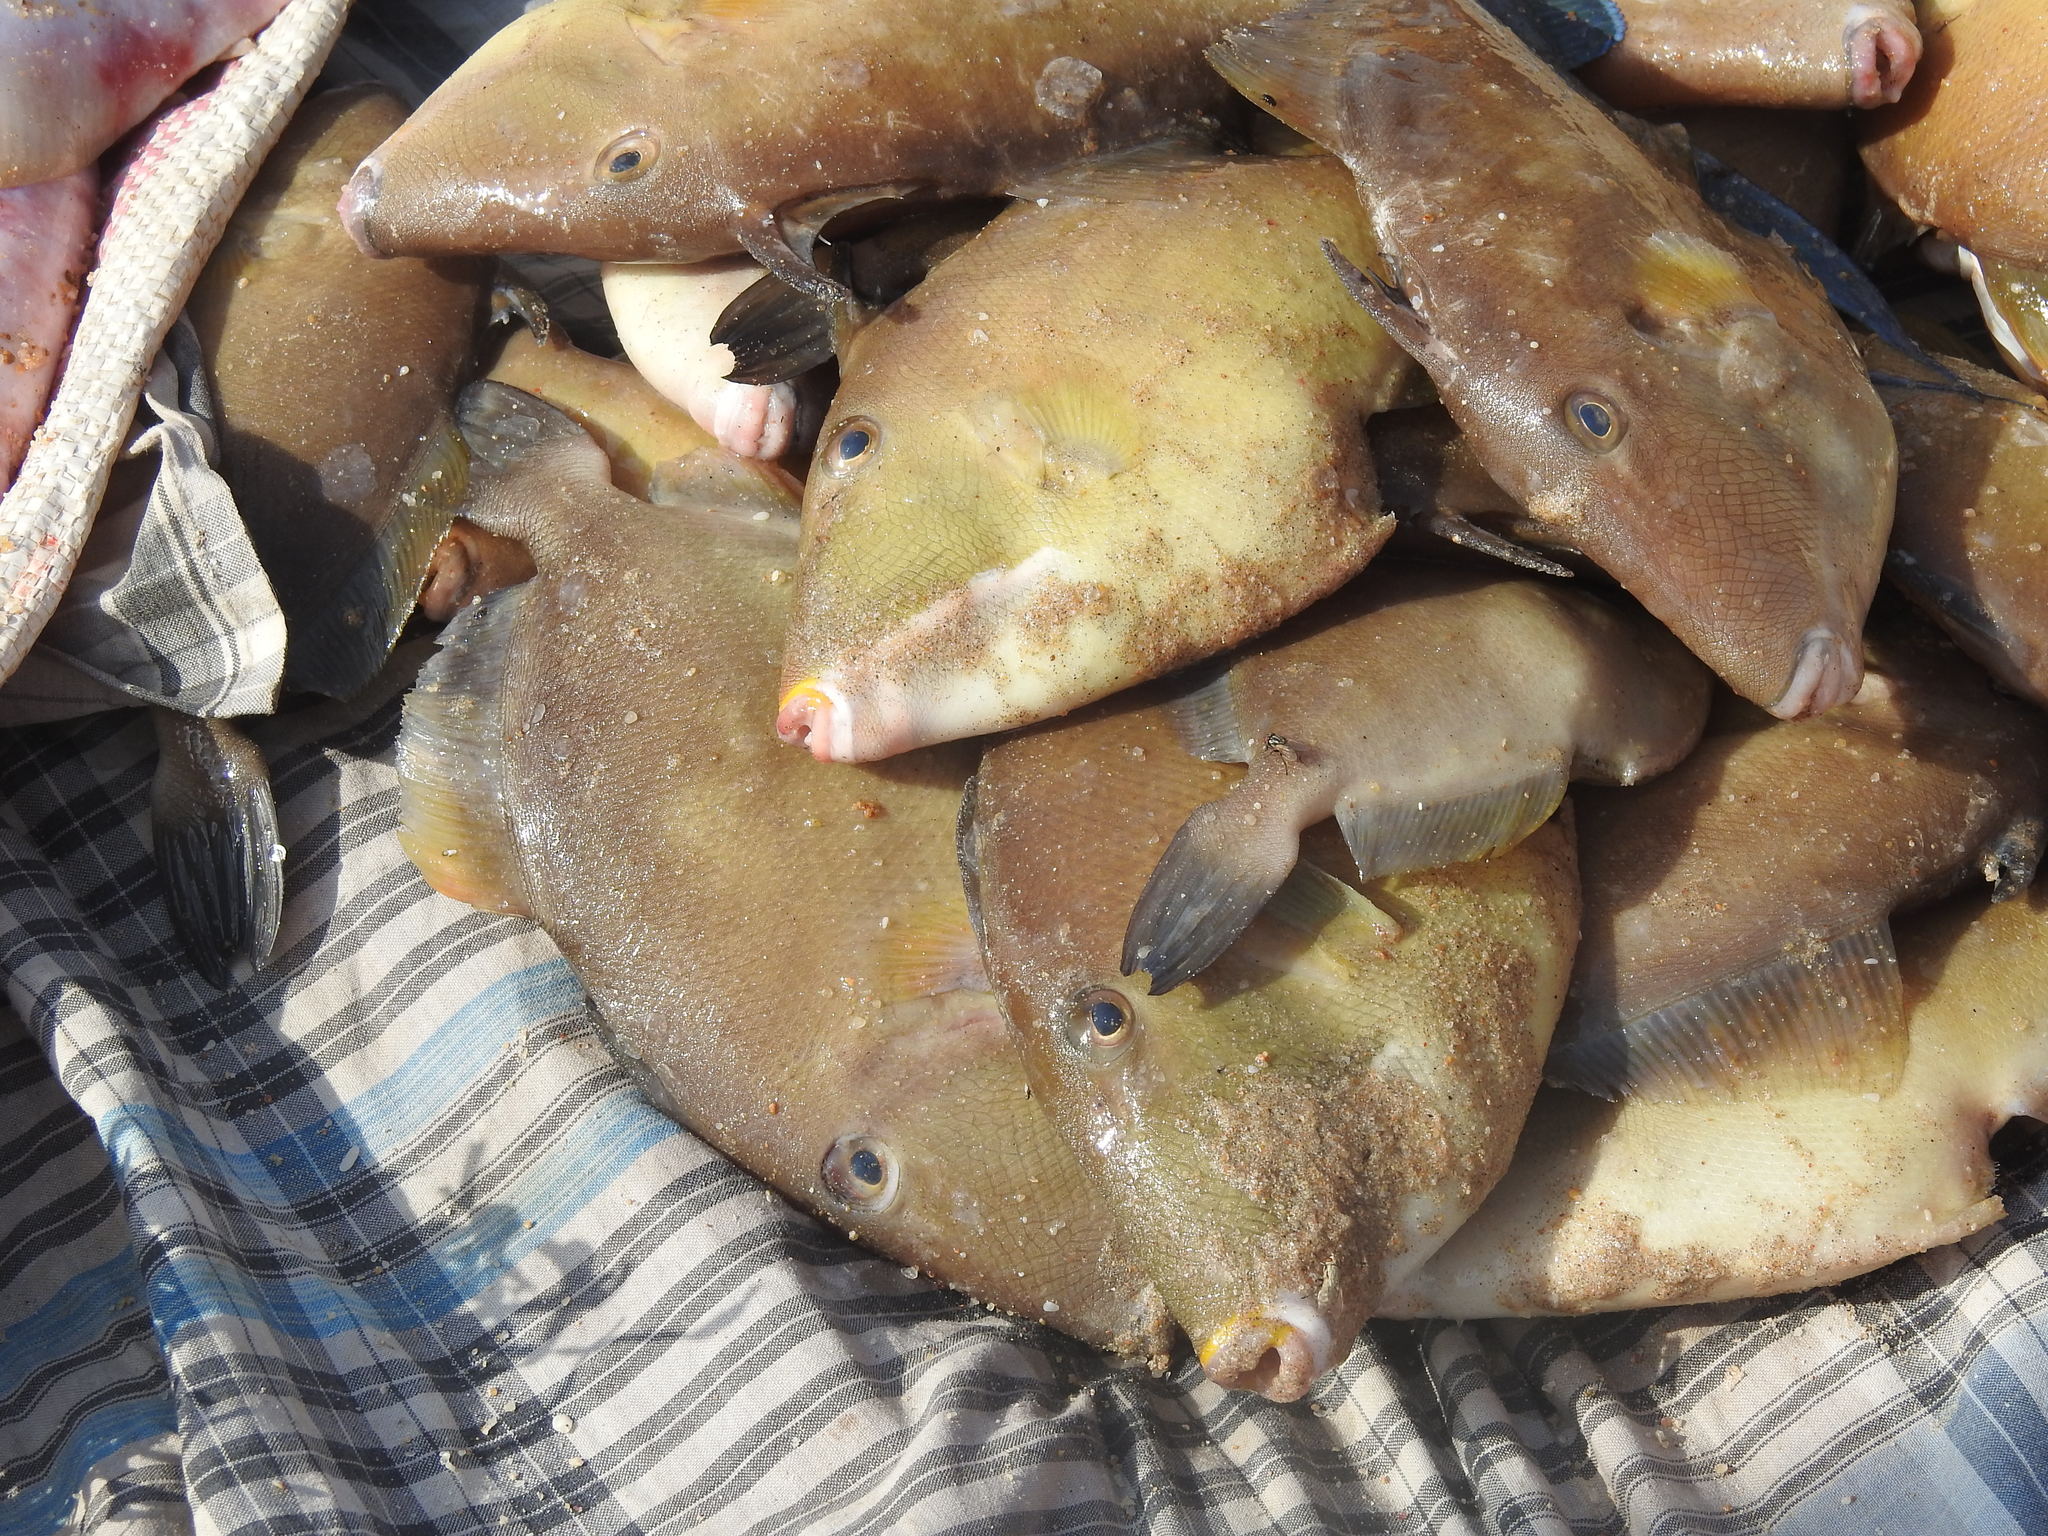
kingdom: Animalia
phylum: Chordata
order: Tetraodontiformes
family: Balistidae
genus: Sufflamen
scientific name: Sufflamen fraenatum
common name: Bridle triggerfish
